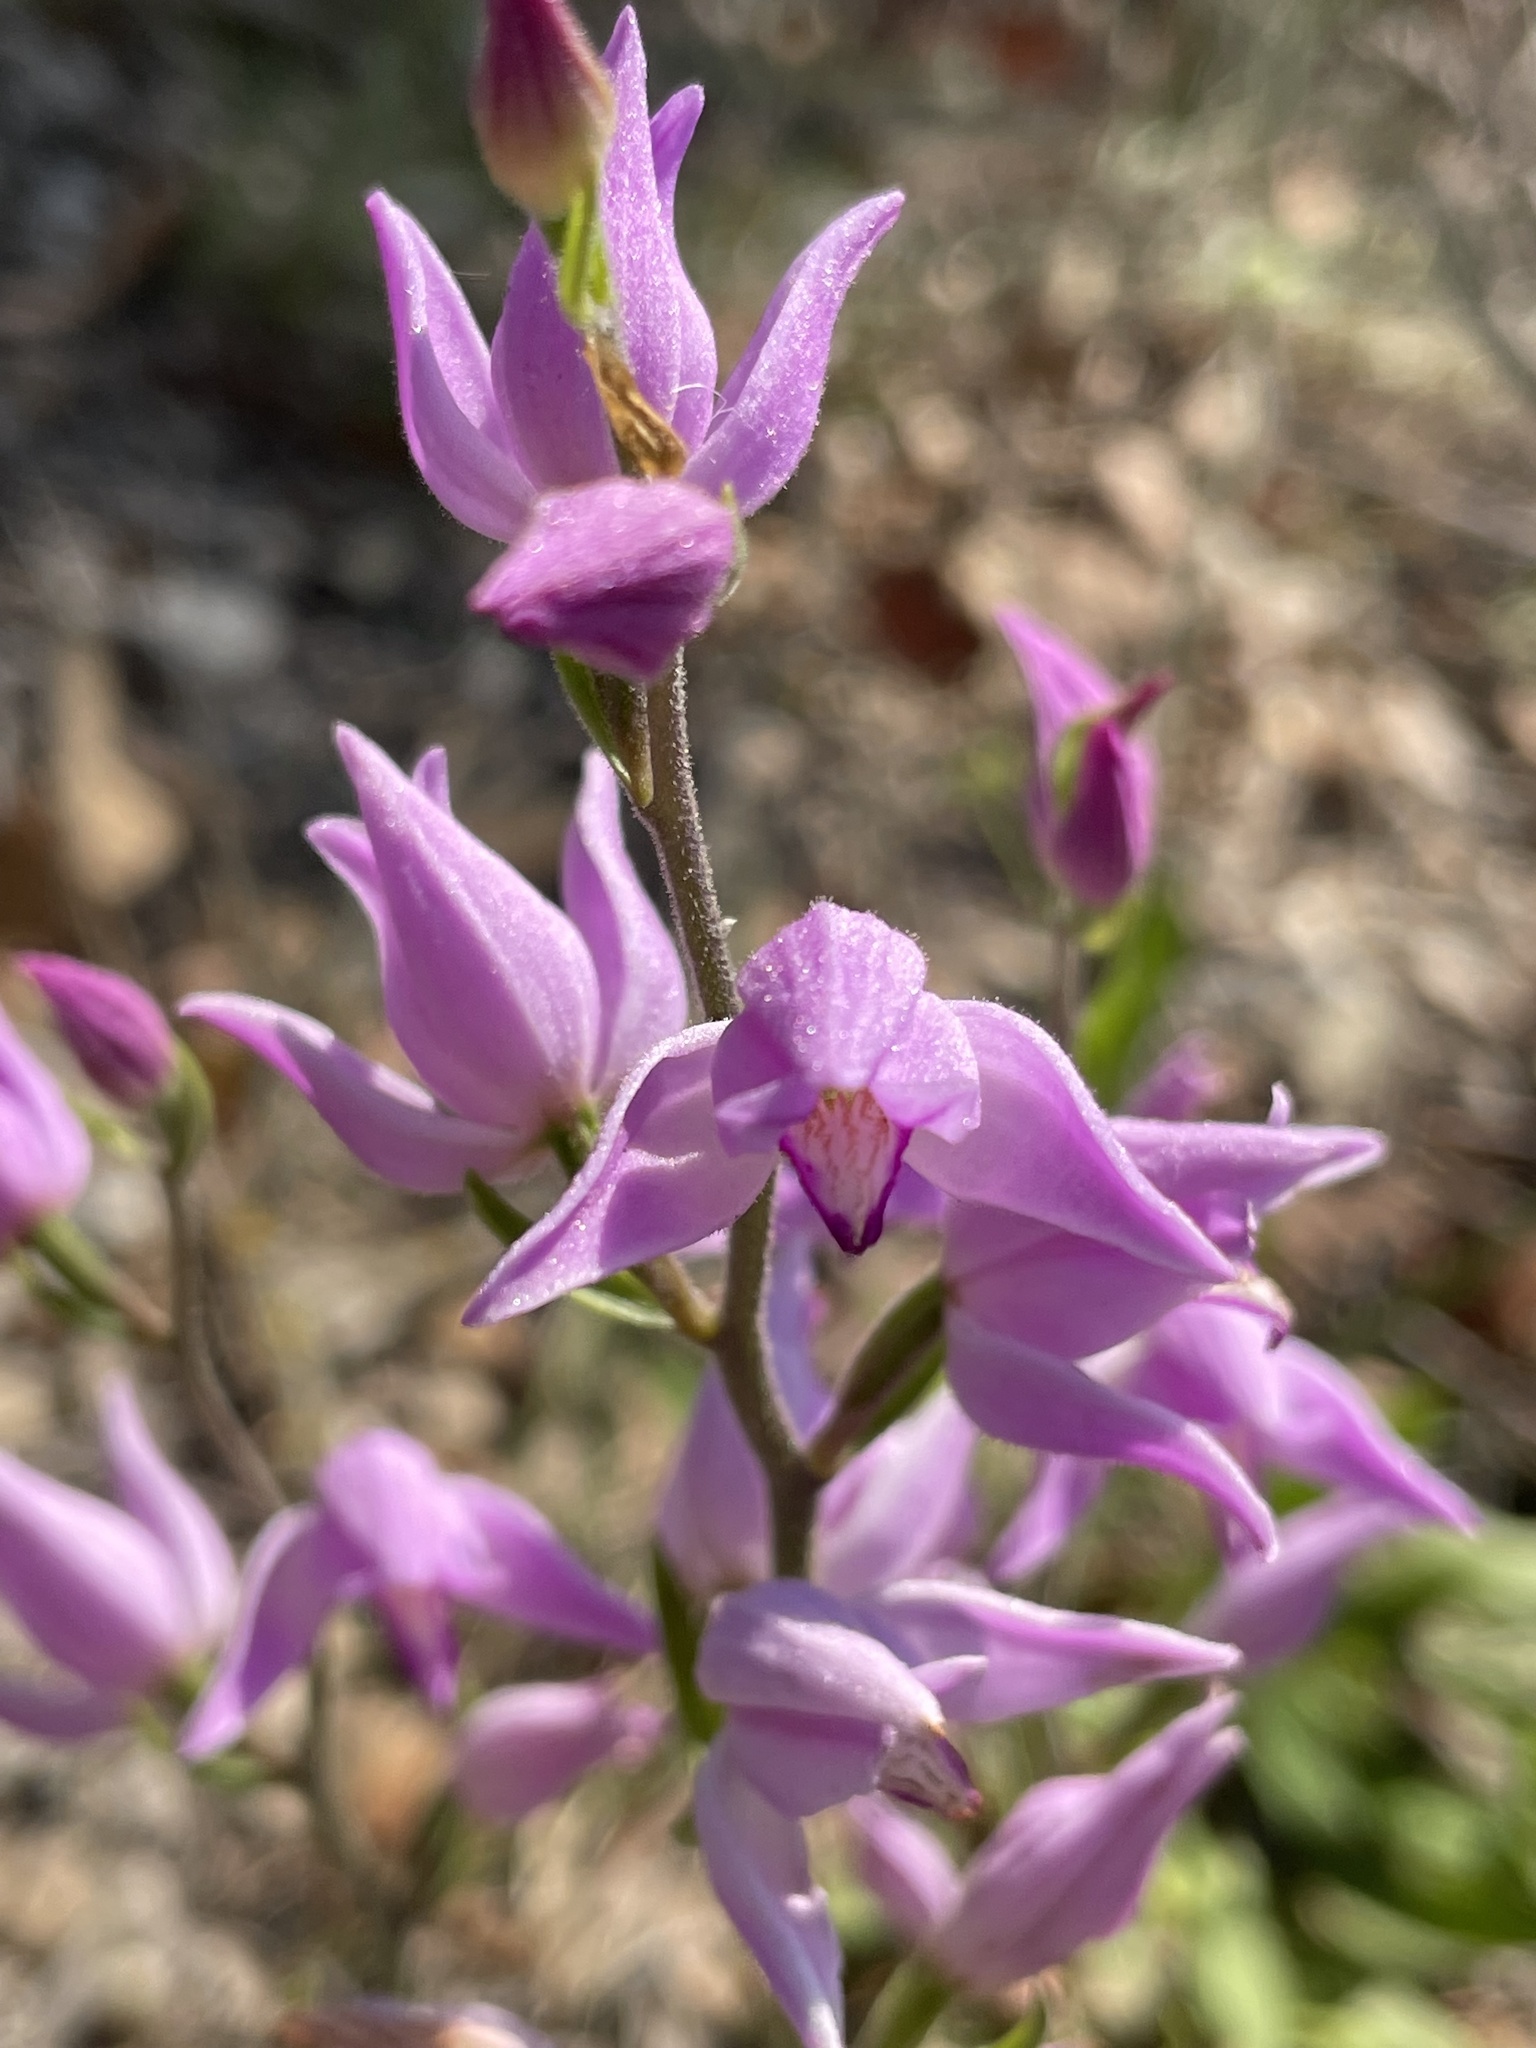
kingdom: Plantae
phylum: Tracheophyta
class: Liliopsida
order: Asparagales
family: Orchidaceae
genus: Cephalanthera
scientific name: Cephalanthera rubra
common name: Red helleborine
